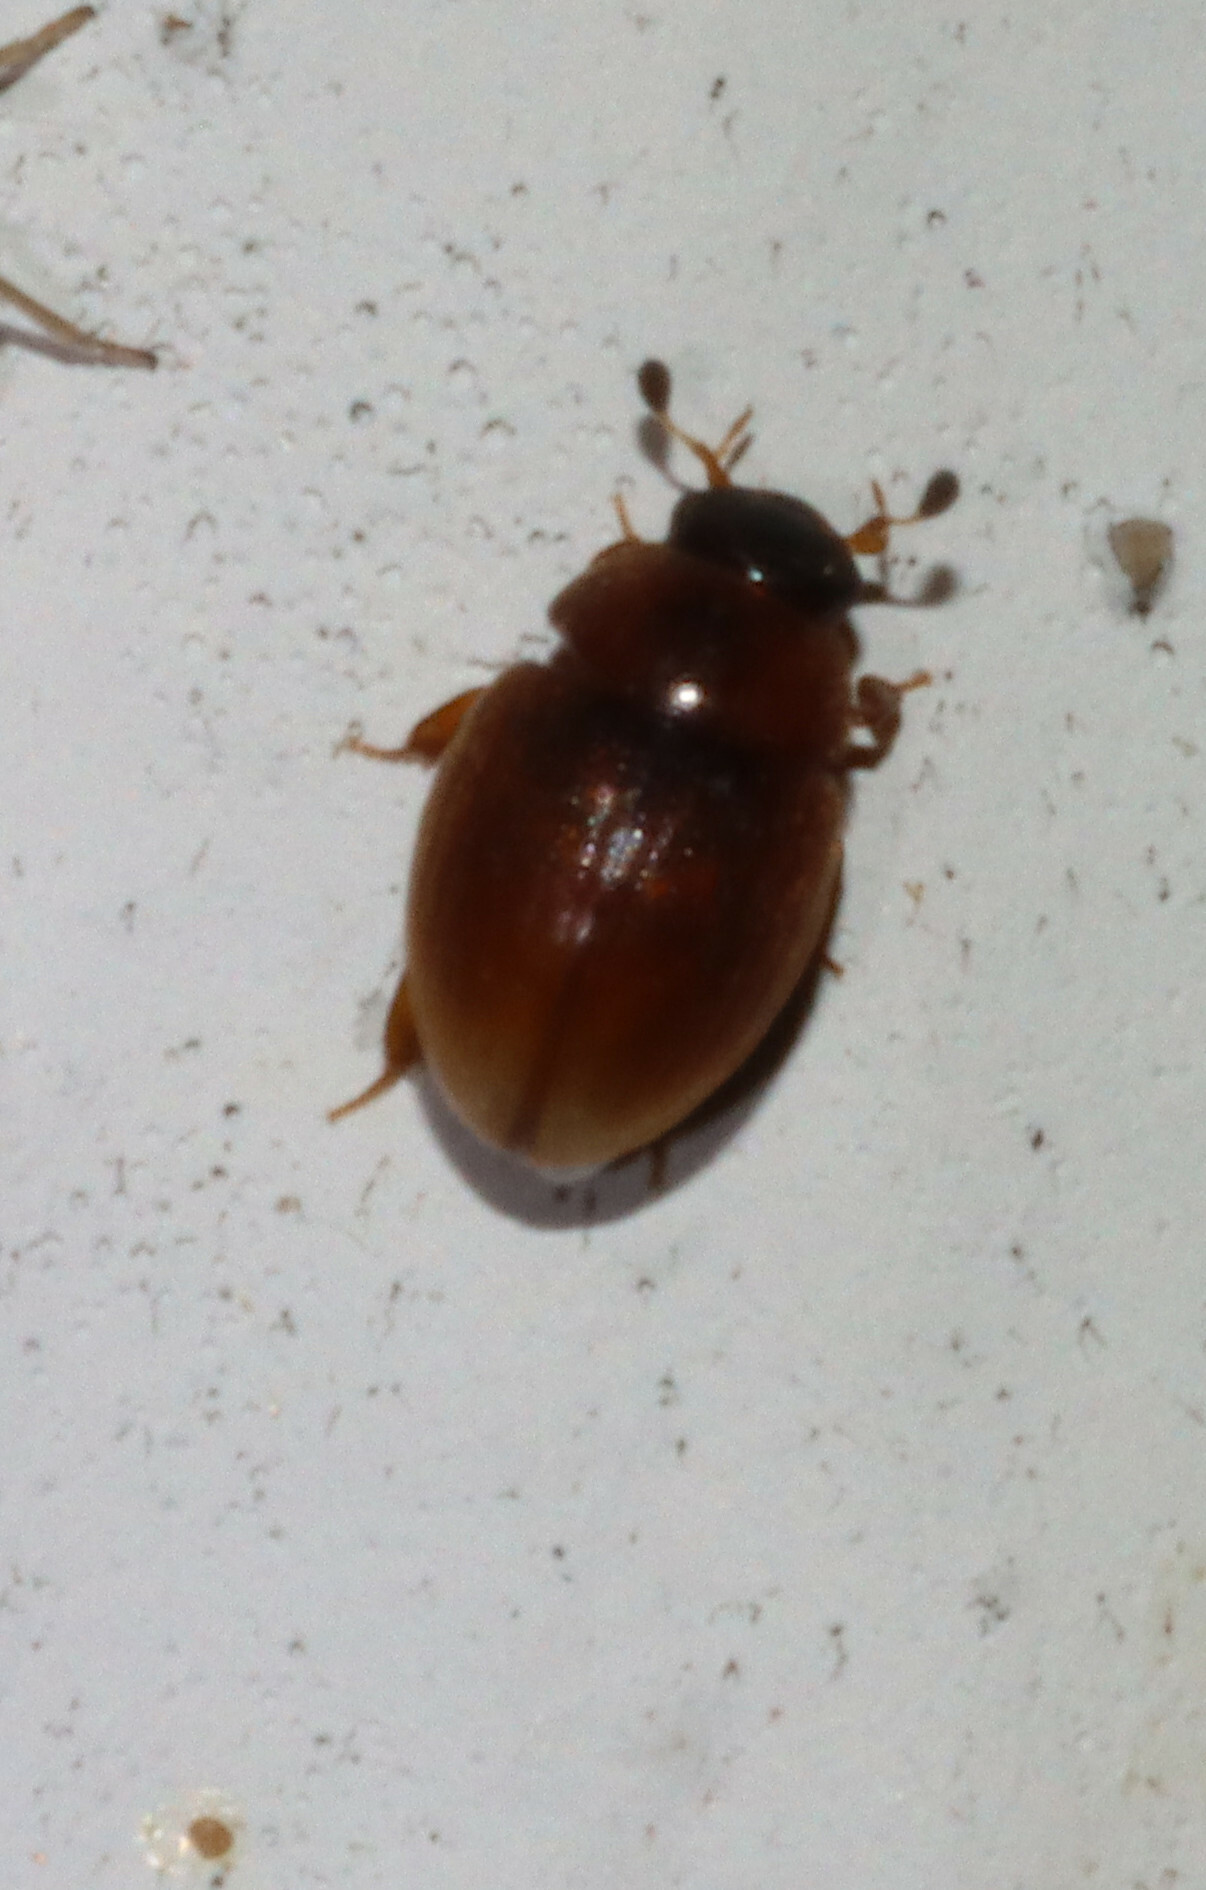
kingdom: Animalia
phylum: Arthropoda
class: Insecta
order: Coleoptera
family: Hydrophilidae
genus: Cercyon
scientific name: Cercyon
